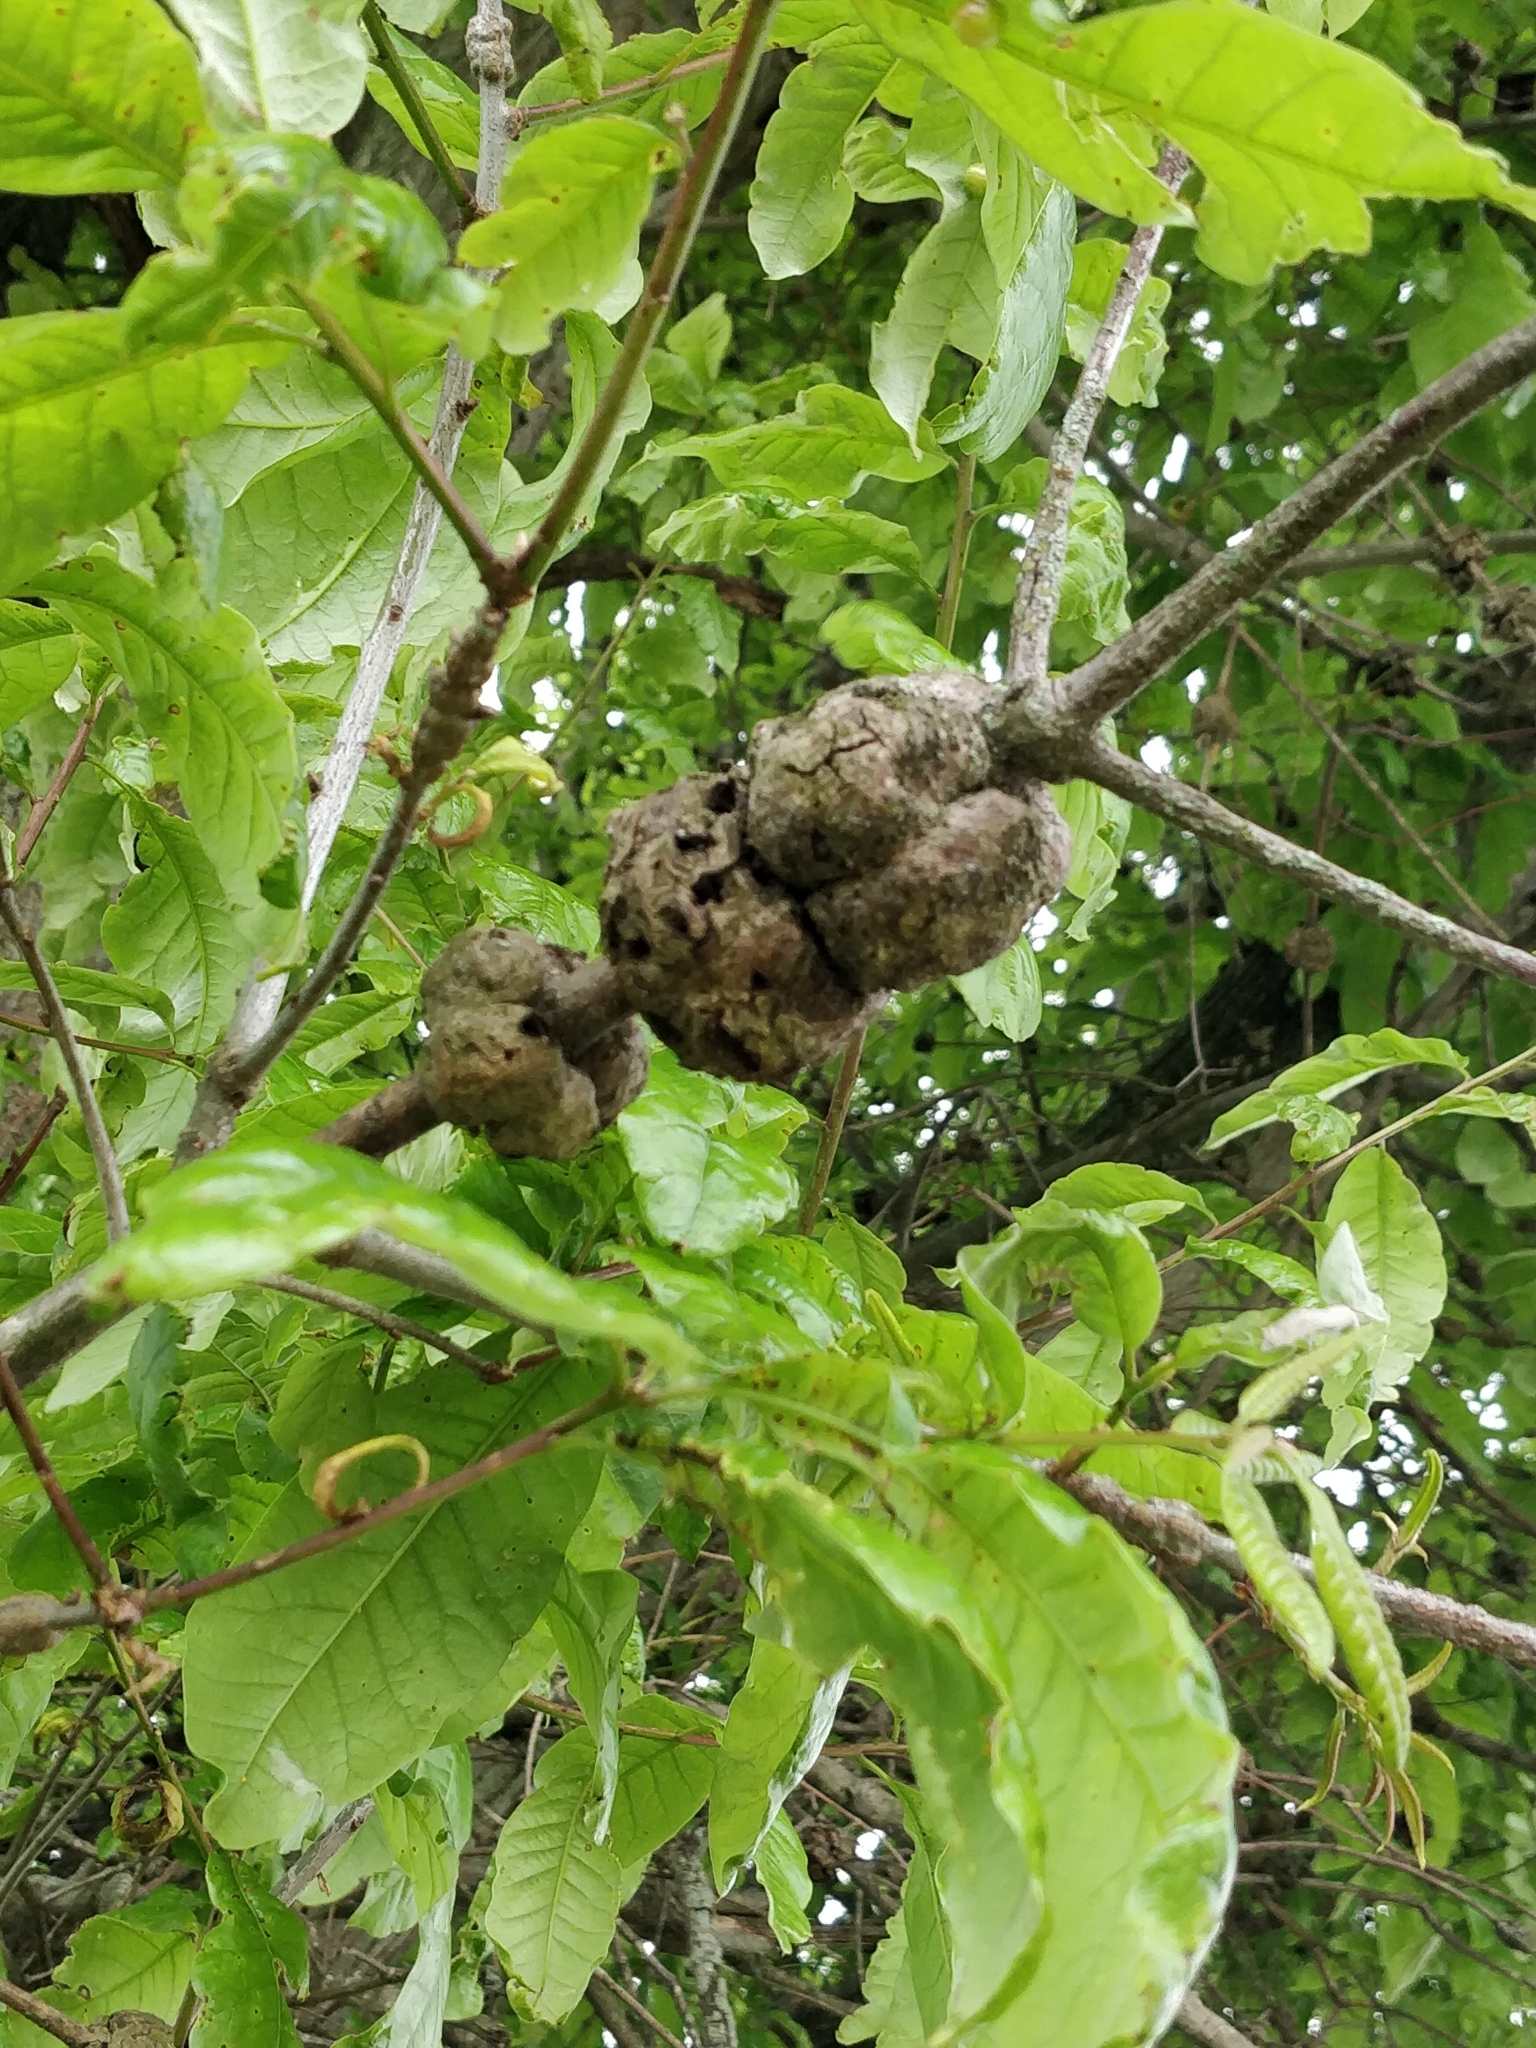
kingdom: Plantae
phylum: Tracheophyta
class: Magnoliopsida
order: Fagales
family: Fagaceae
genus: Quercus
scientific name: Quercus imbricaria
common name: Shingle oak
